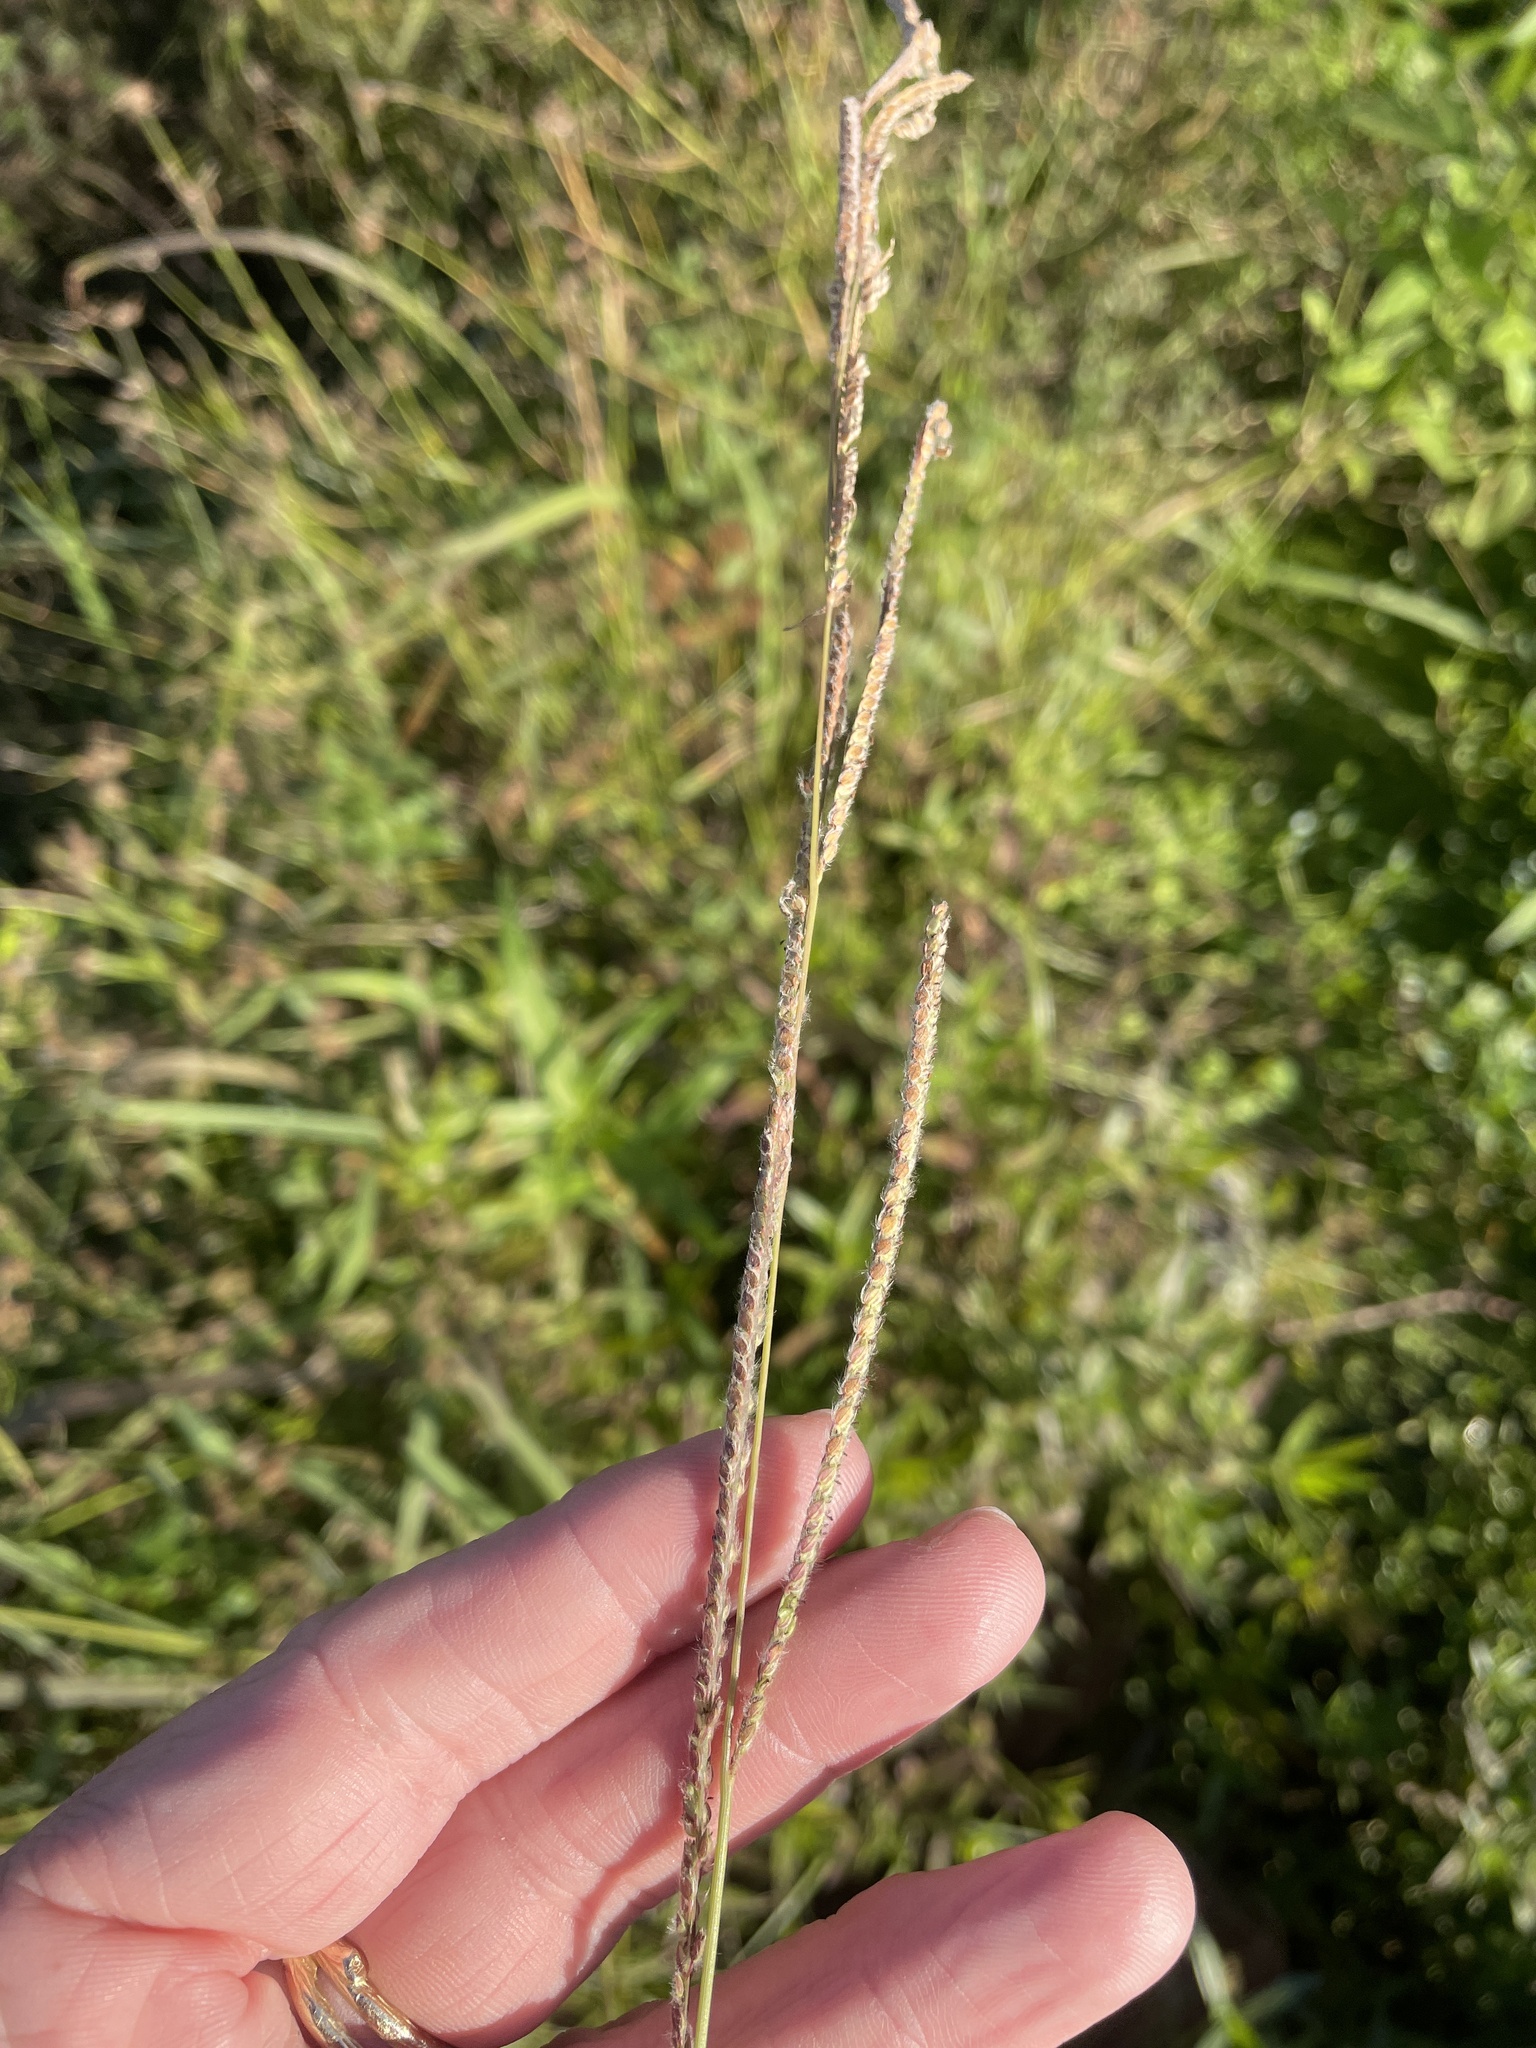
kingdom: Plantae
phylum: Tracheophyta
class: Liliopsida
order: Poales
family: Poaceae
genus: Paspalum
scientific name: Paspalum urvillei
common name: Vasey's grass
